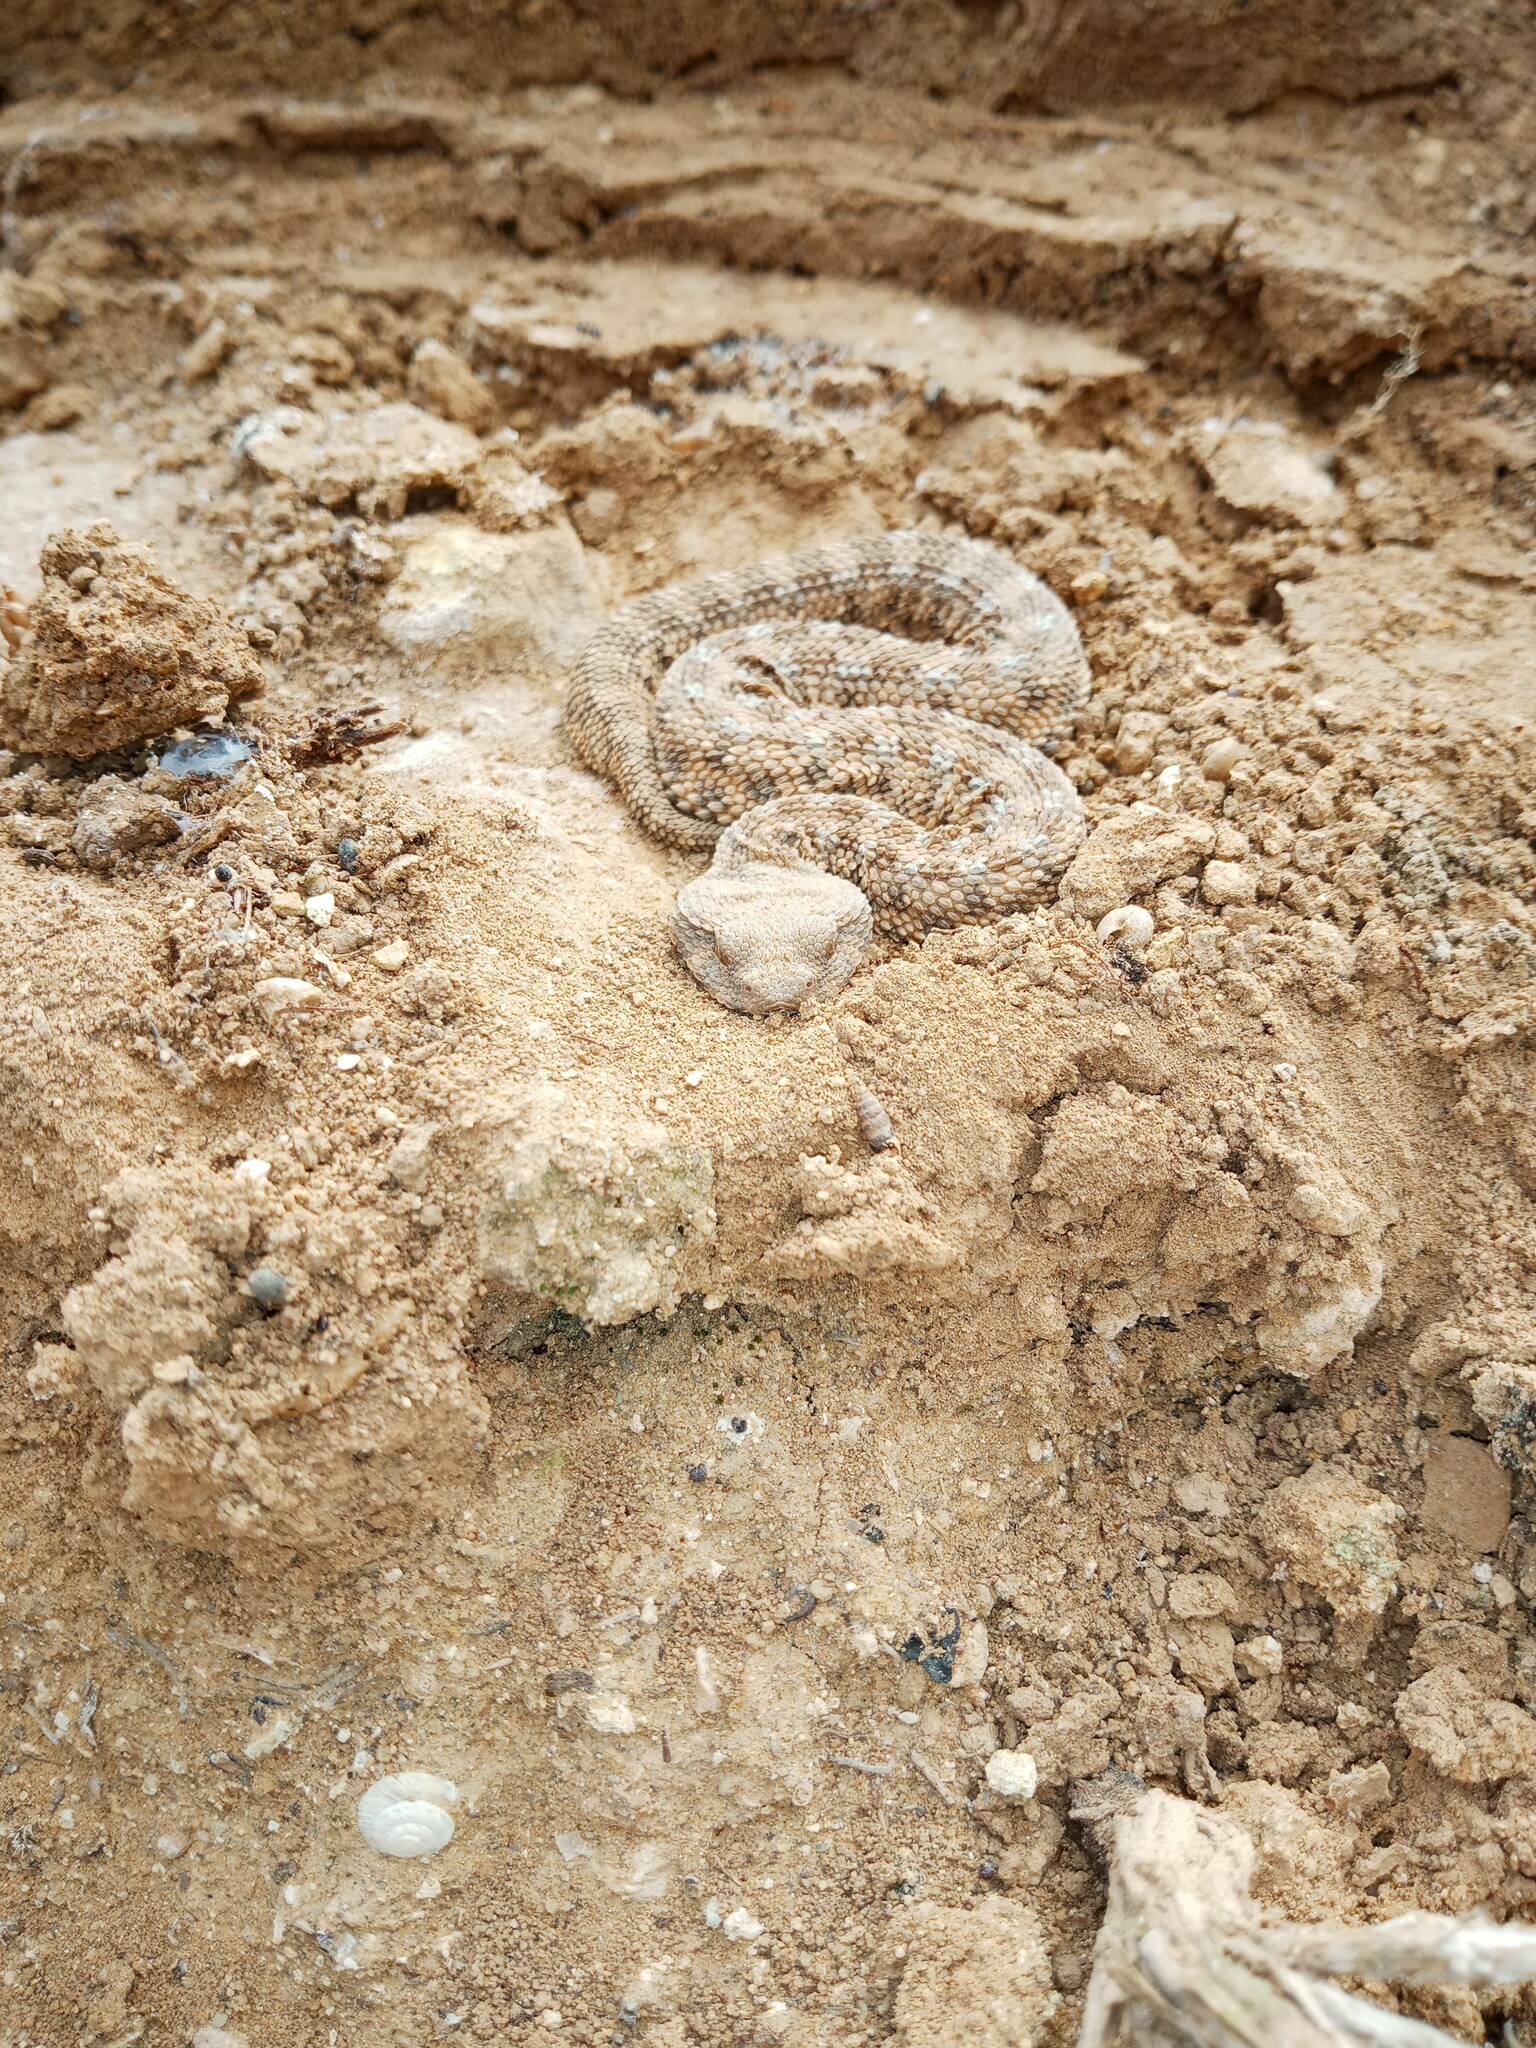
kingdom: Animalia
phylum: Chordata
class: Squamata
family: Viperidae
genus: Cerastes
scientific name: Cerastes cerastes
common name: Desert horned viper
